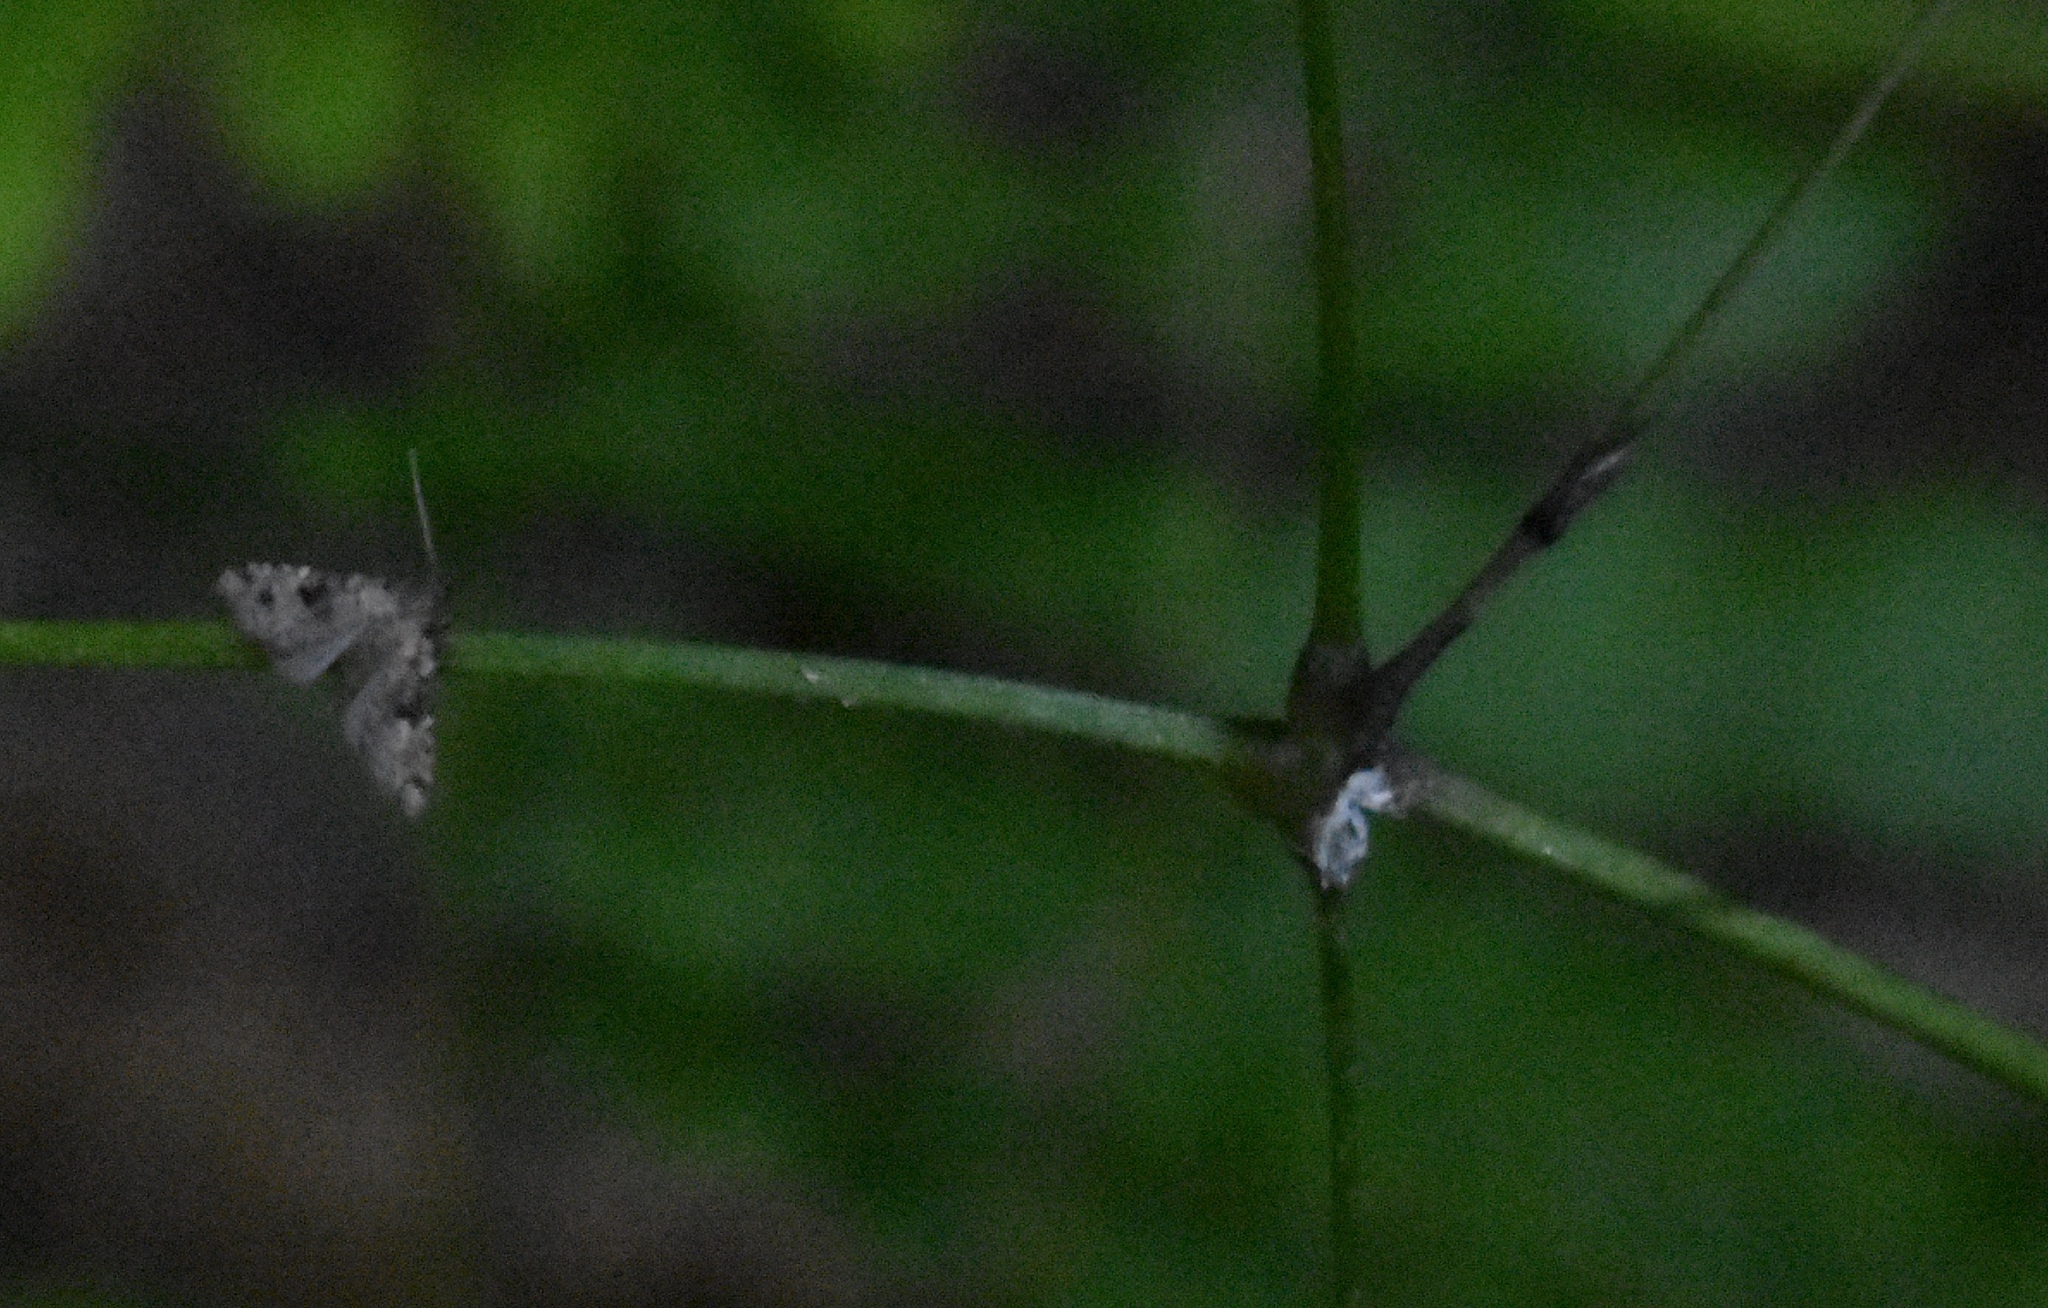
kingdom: Animalia
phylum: Arthropoda
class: Insecta
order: Lepidoptera
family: Erebidae
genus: Pseudoschrankia
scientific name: Pseudoschrankia brevipalpis
